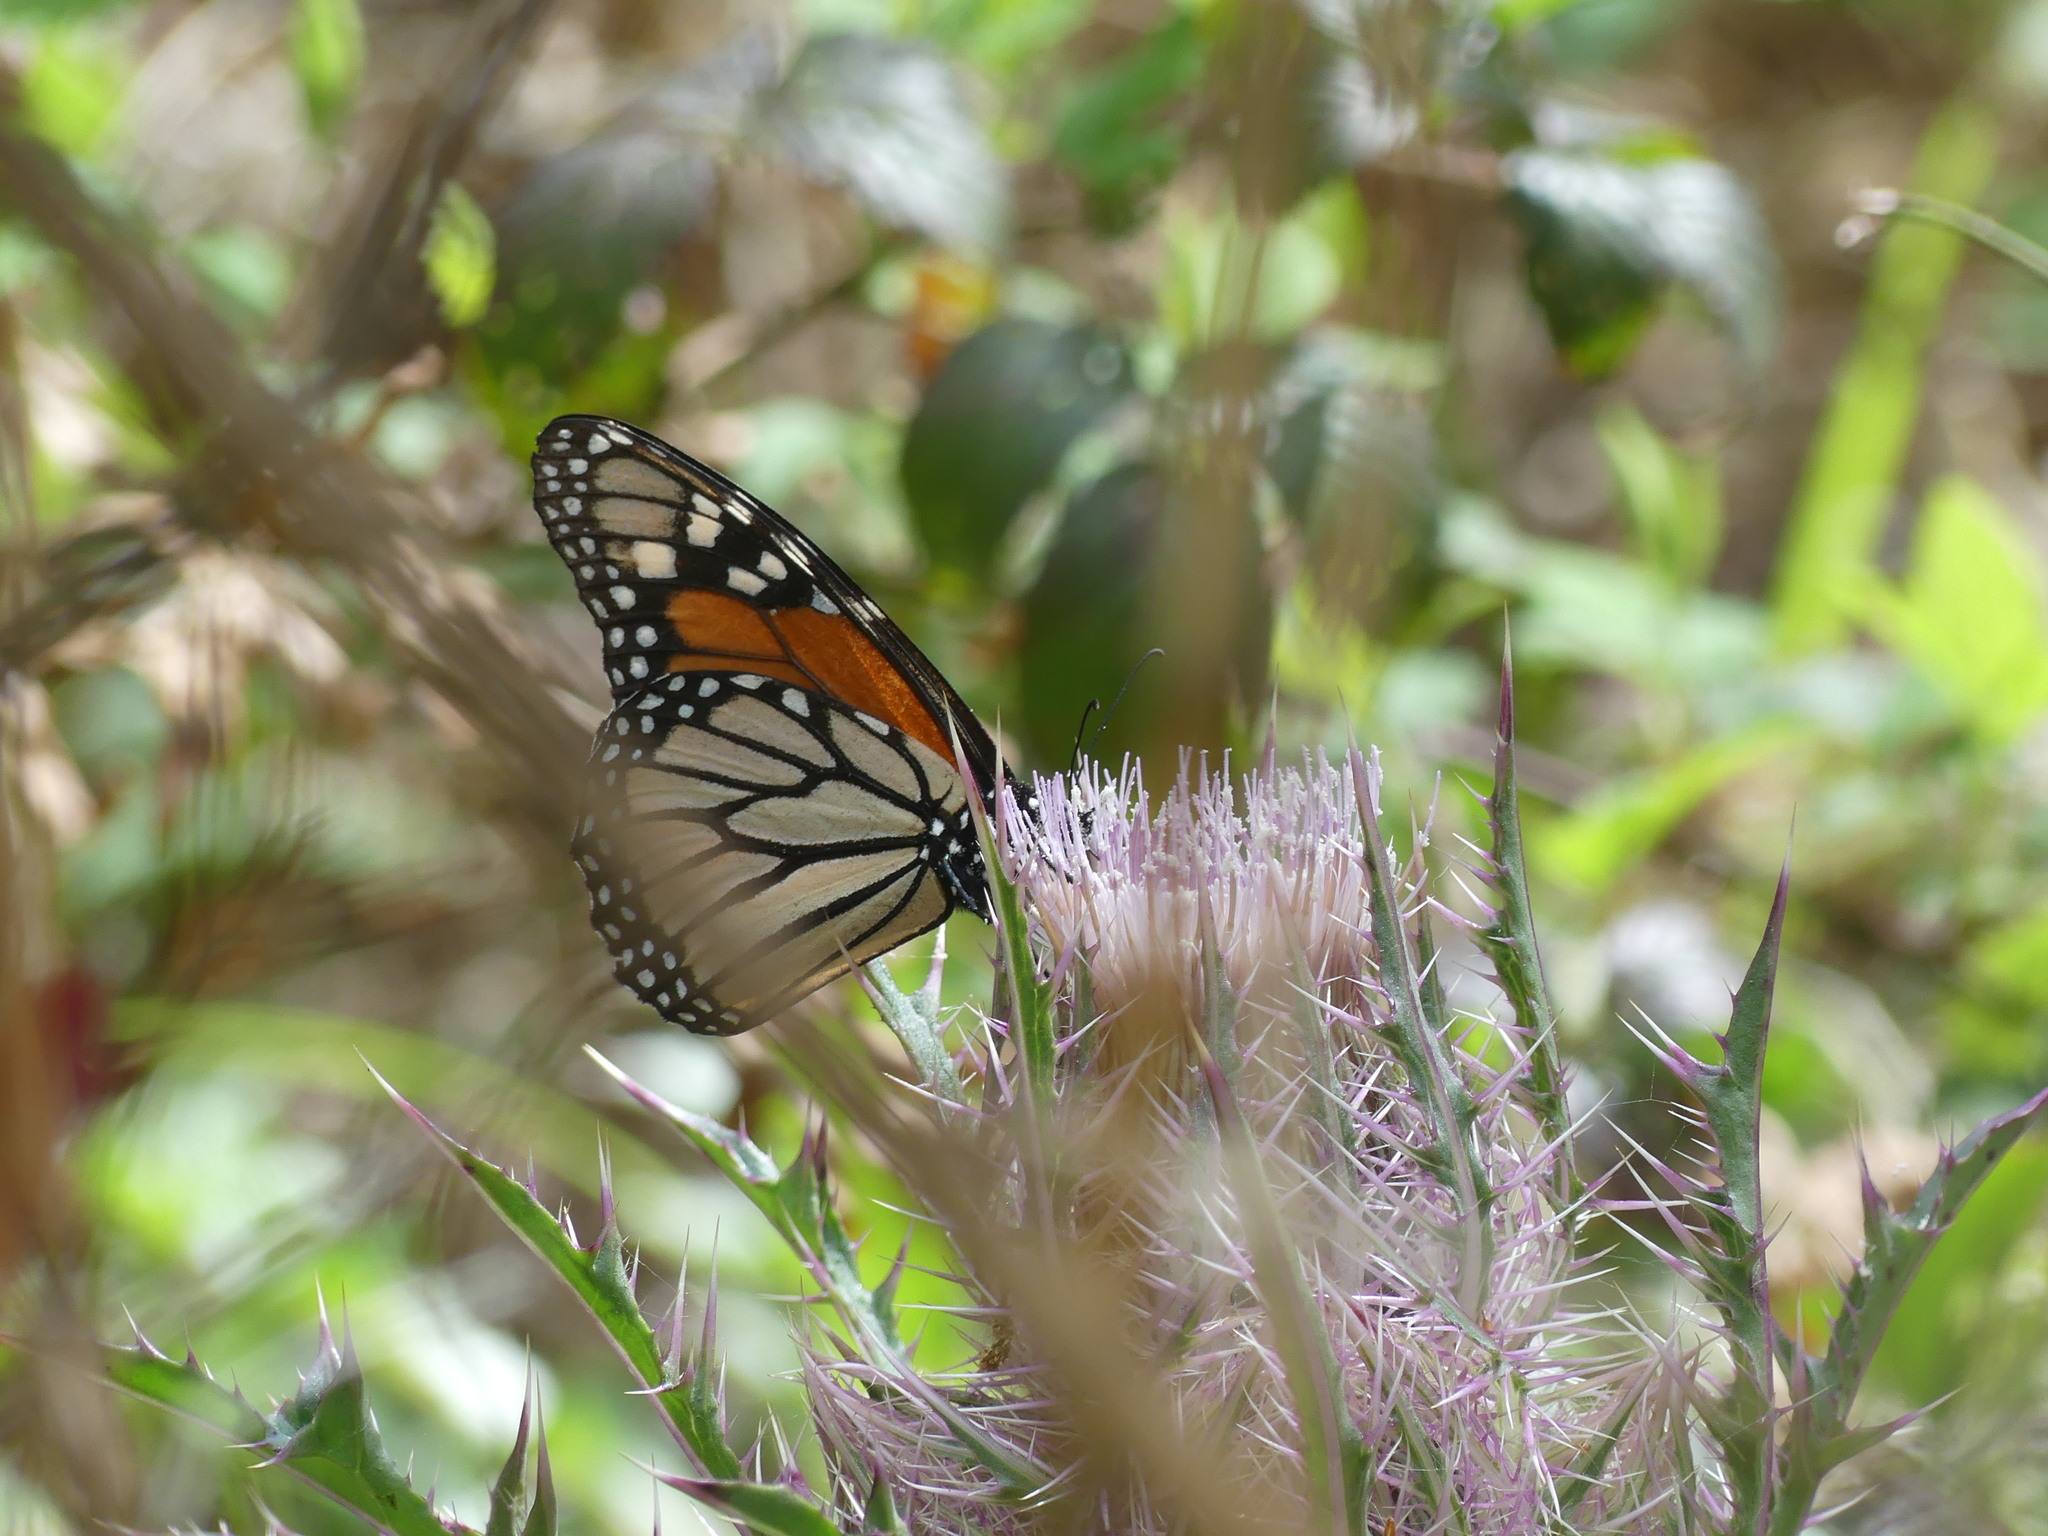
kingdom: Animalia
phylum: Arthropoda
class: Insecta
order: Lepidoptera
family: Nymphalidae
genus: Danaus
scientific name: Danaus plexippus
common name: Monarch
